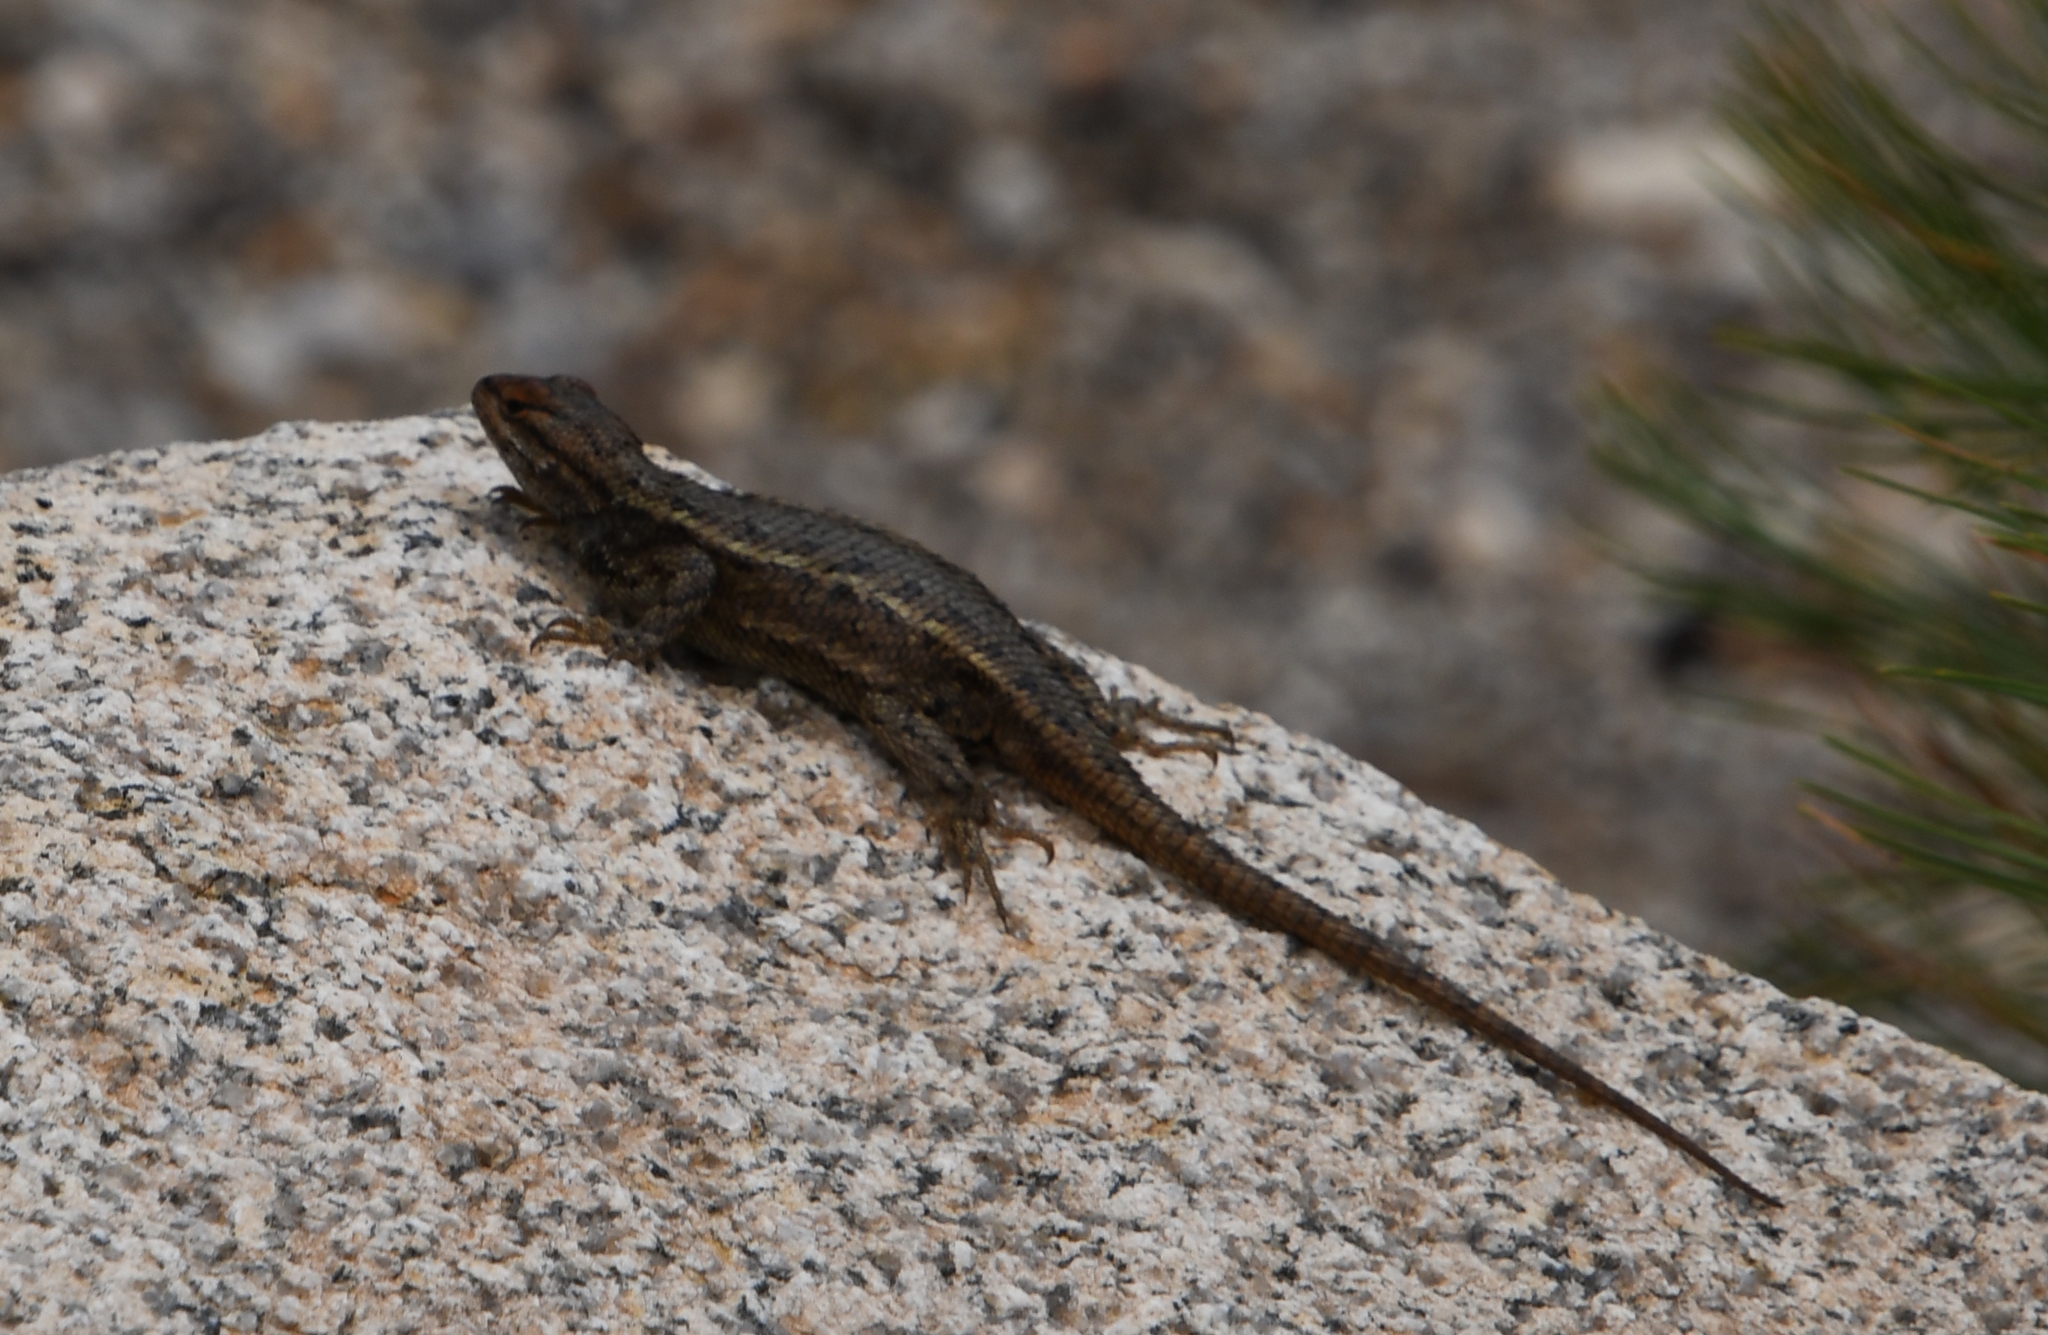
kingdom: Animalia
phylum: Chordata
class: Squamata
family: Phrynosomatidae
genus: Sceloporus
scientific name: Sceloporus cowlesi
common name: White sands prairie lizard
